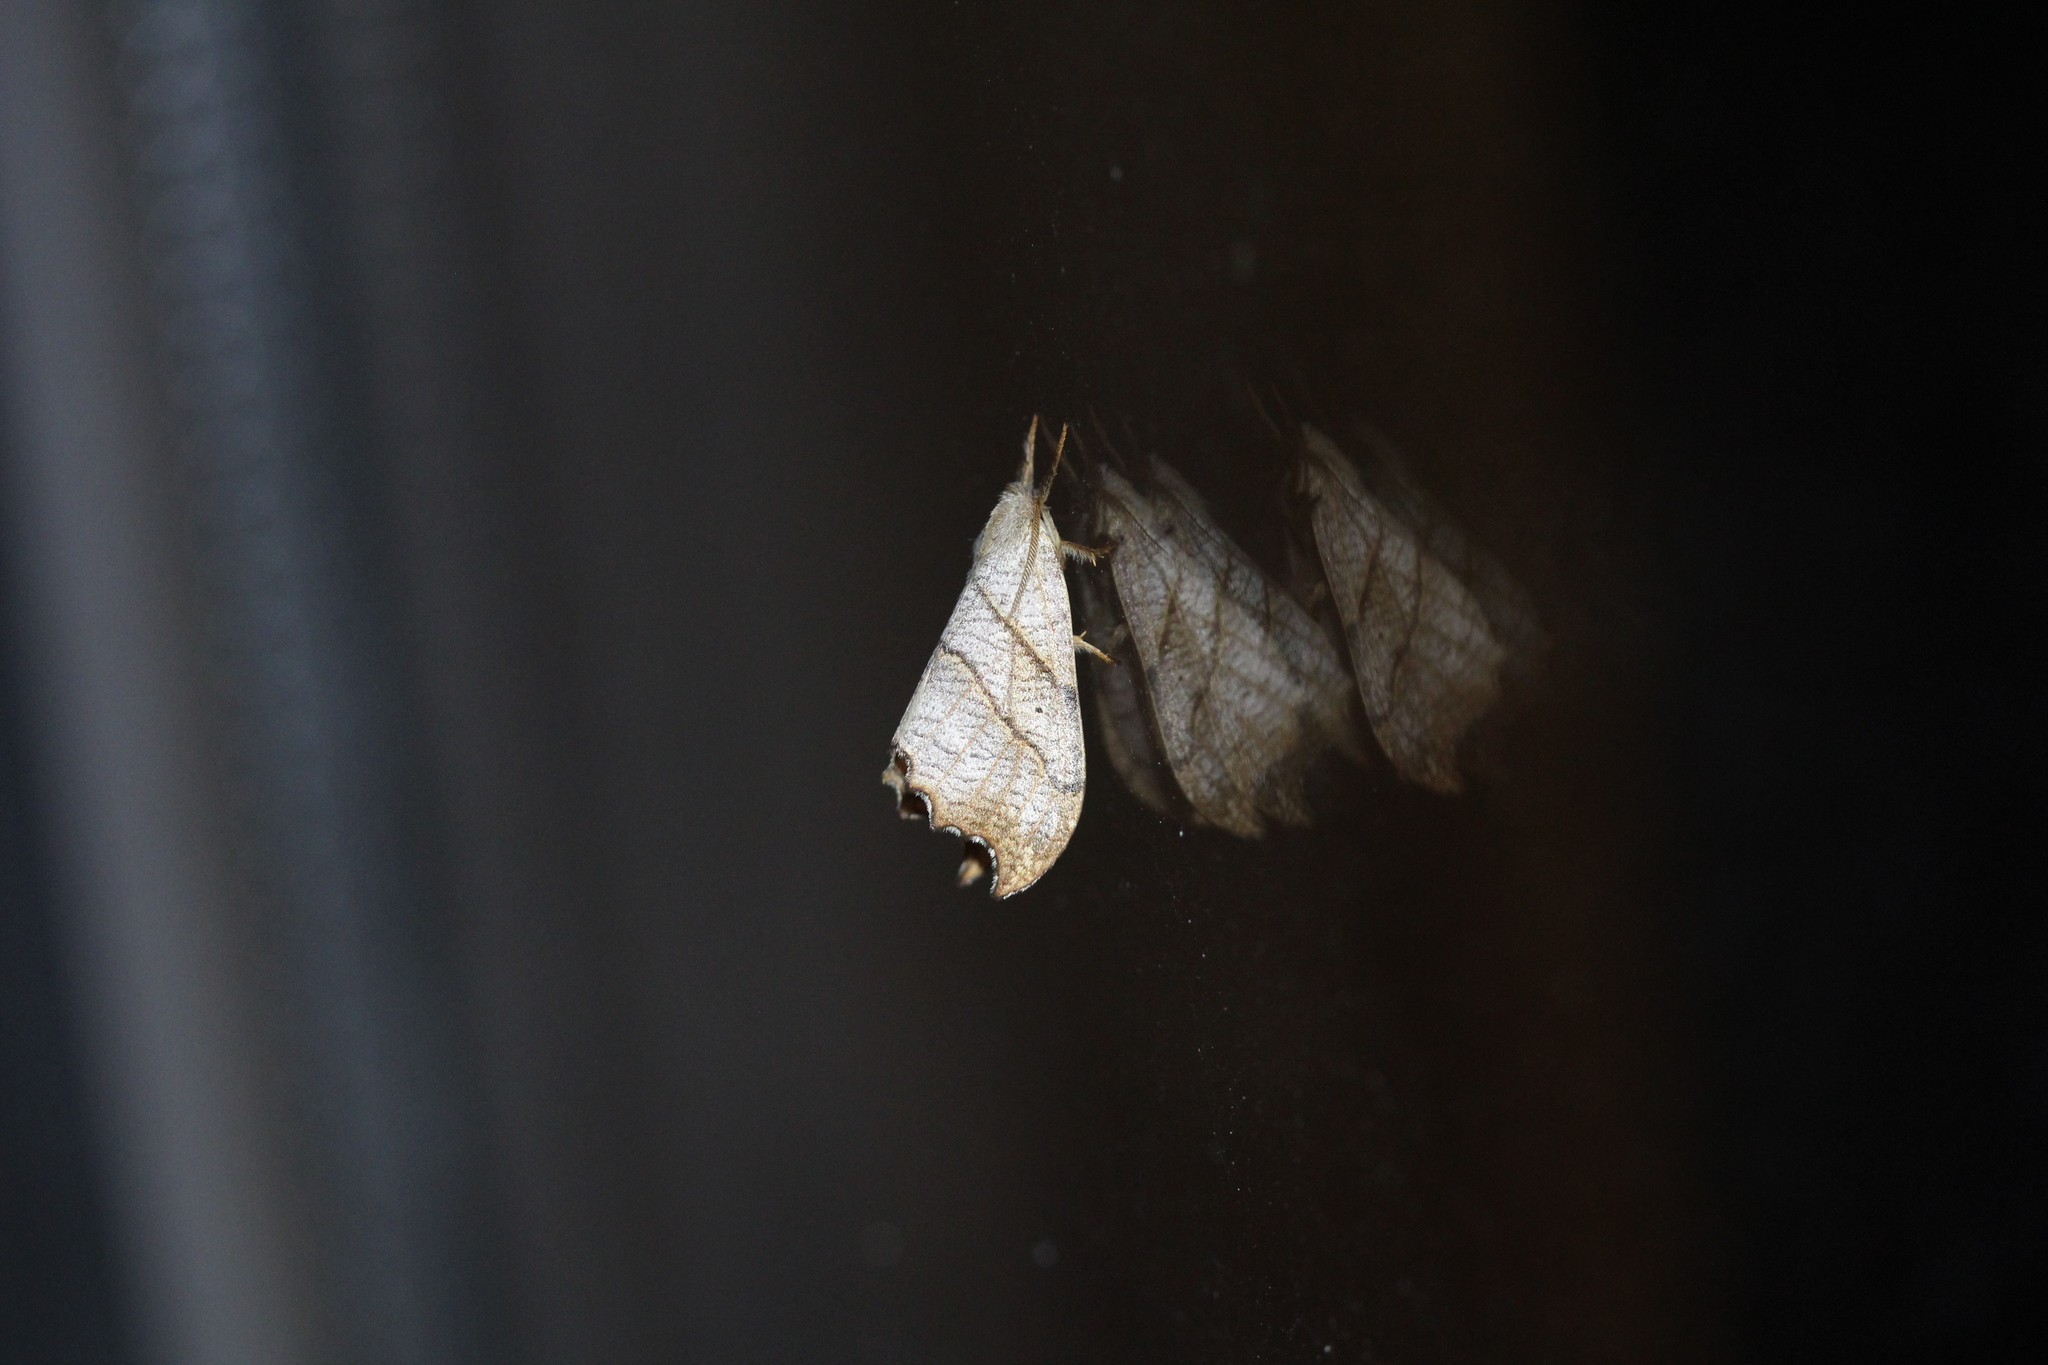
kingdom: Animalia
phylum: Arthropoda
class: Insecta
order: Lepidoptera
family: Drepanidae
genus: Falcaria
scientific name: Falcaria bilineata
